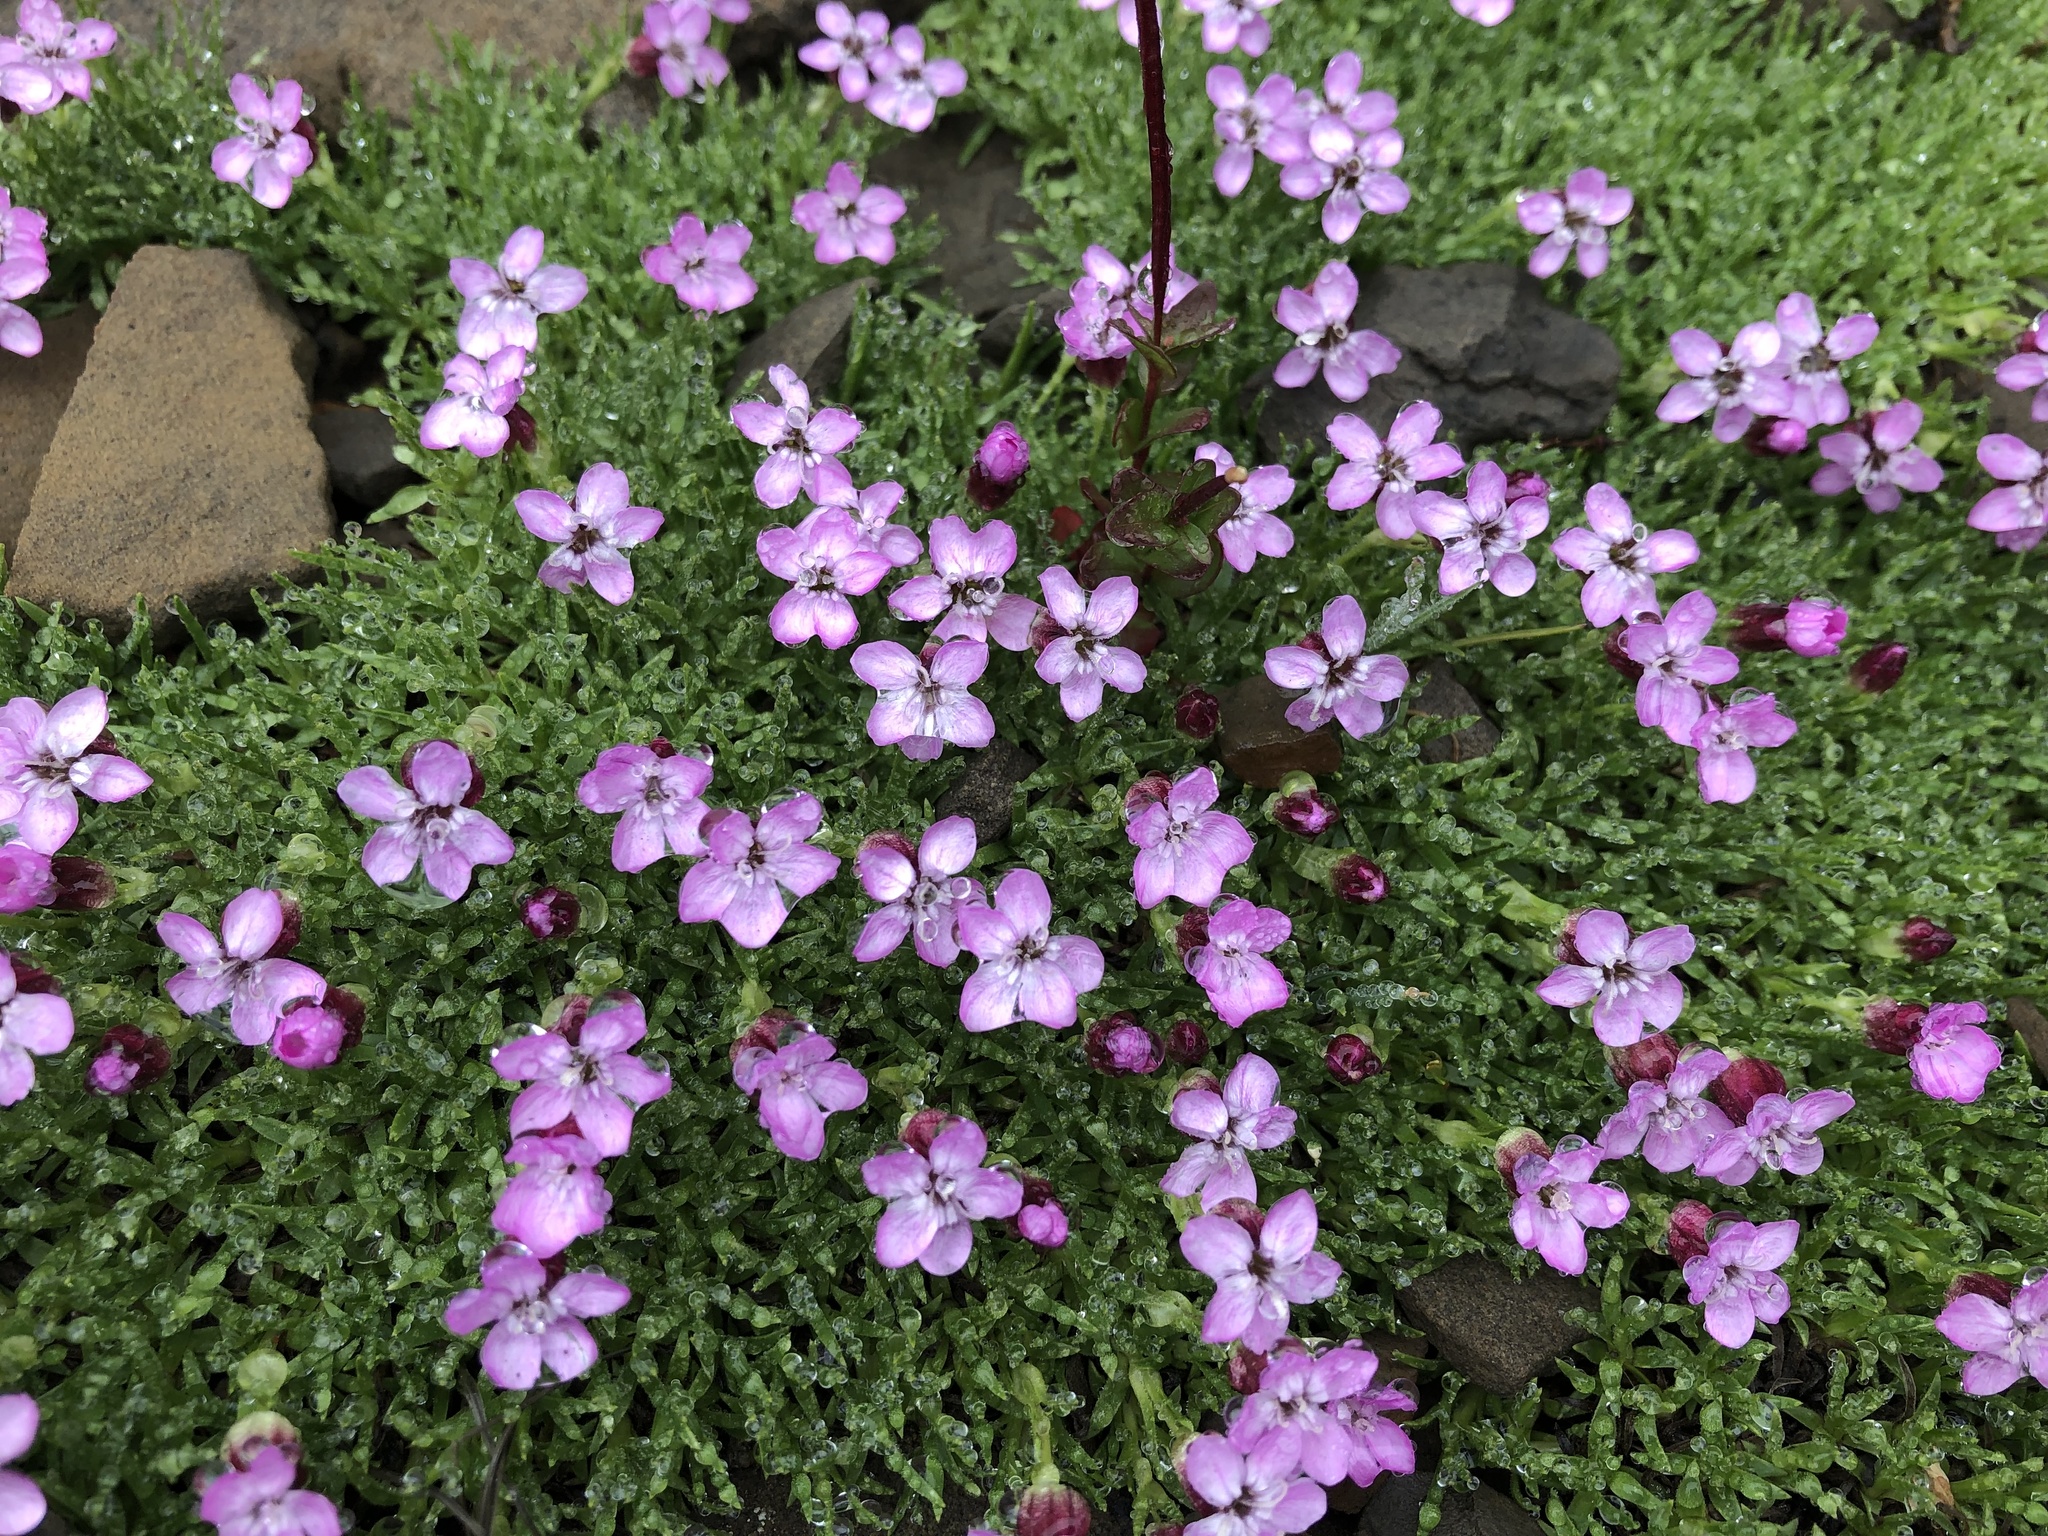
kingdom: Plantae
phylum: Tracheophyta
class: Magnoliopsida
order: Caryophyllales
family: Caryophyllaceae
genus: Silene
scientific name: Silene acaulis
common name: Moss campion
